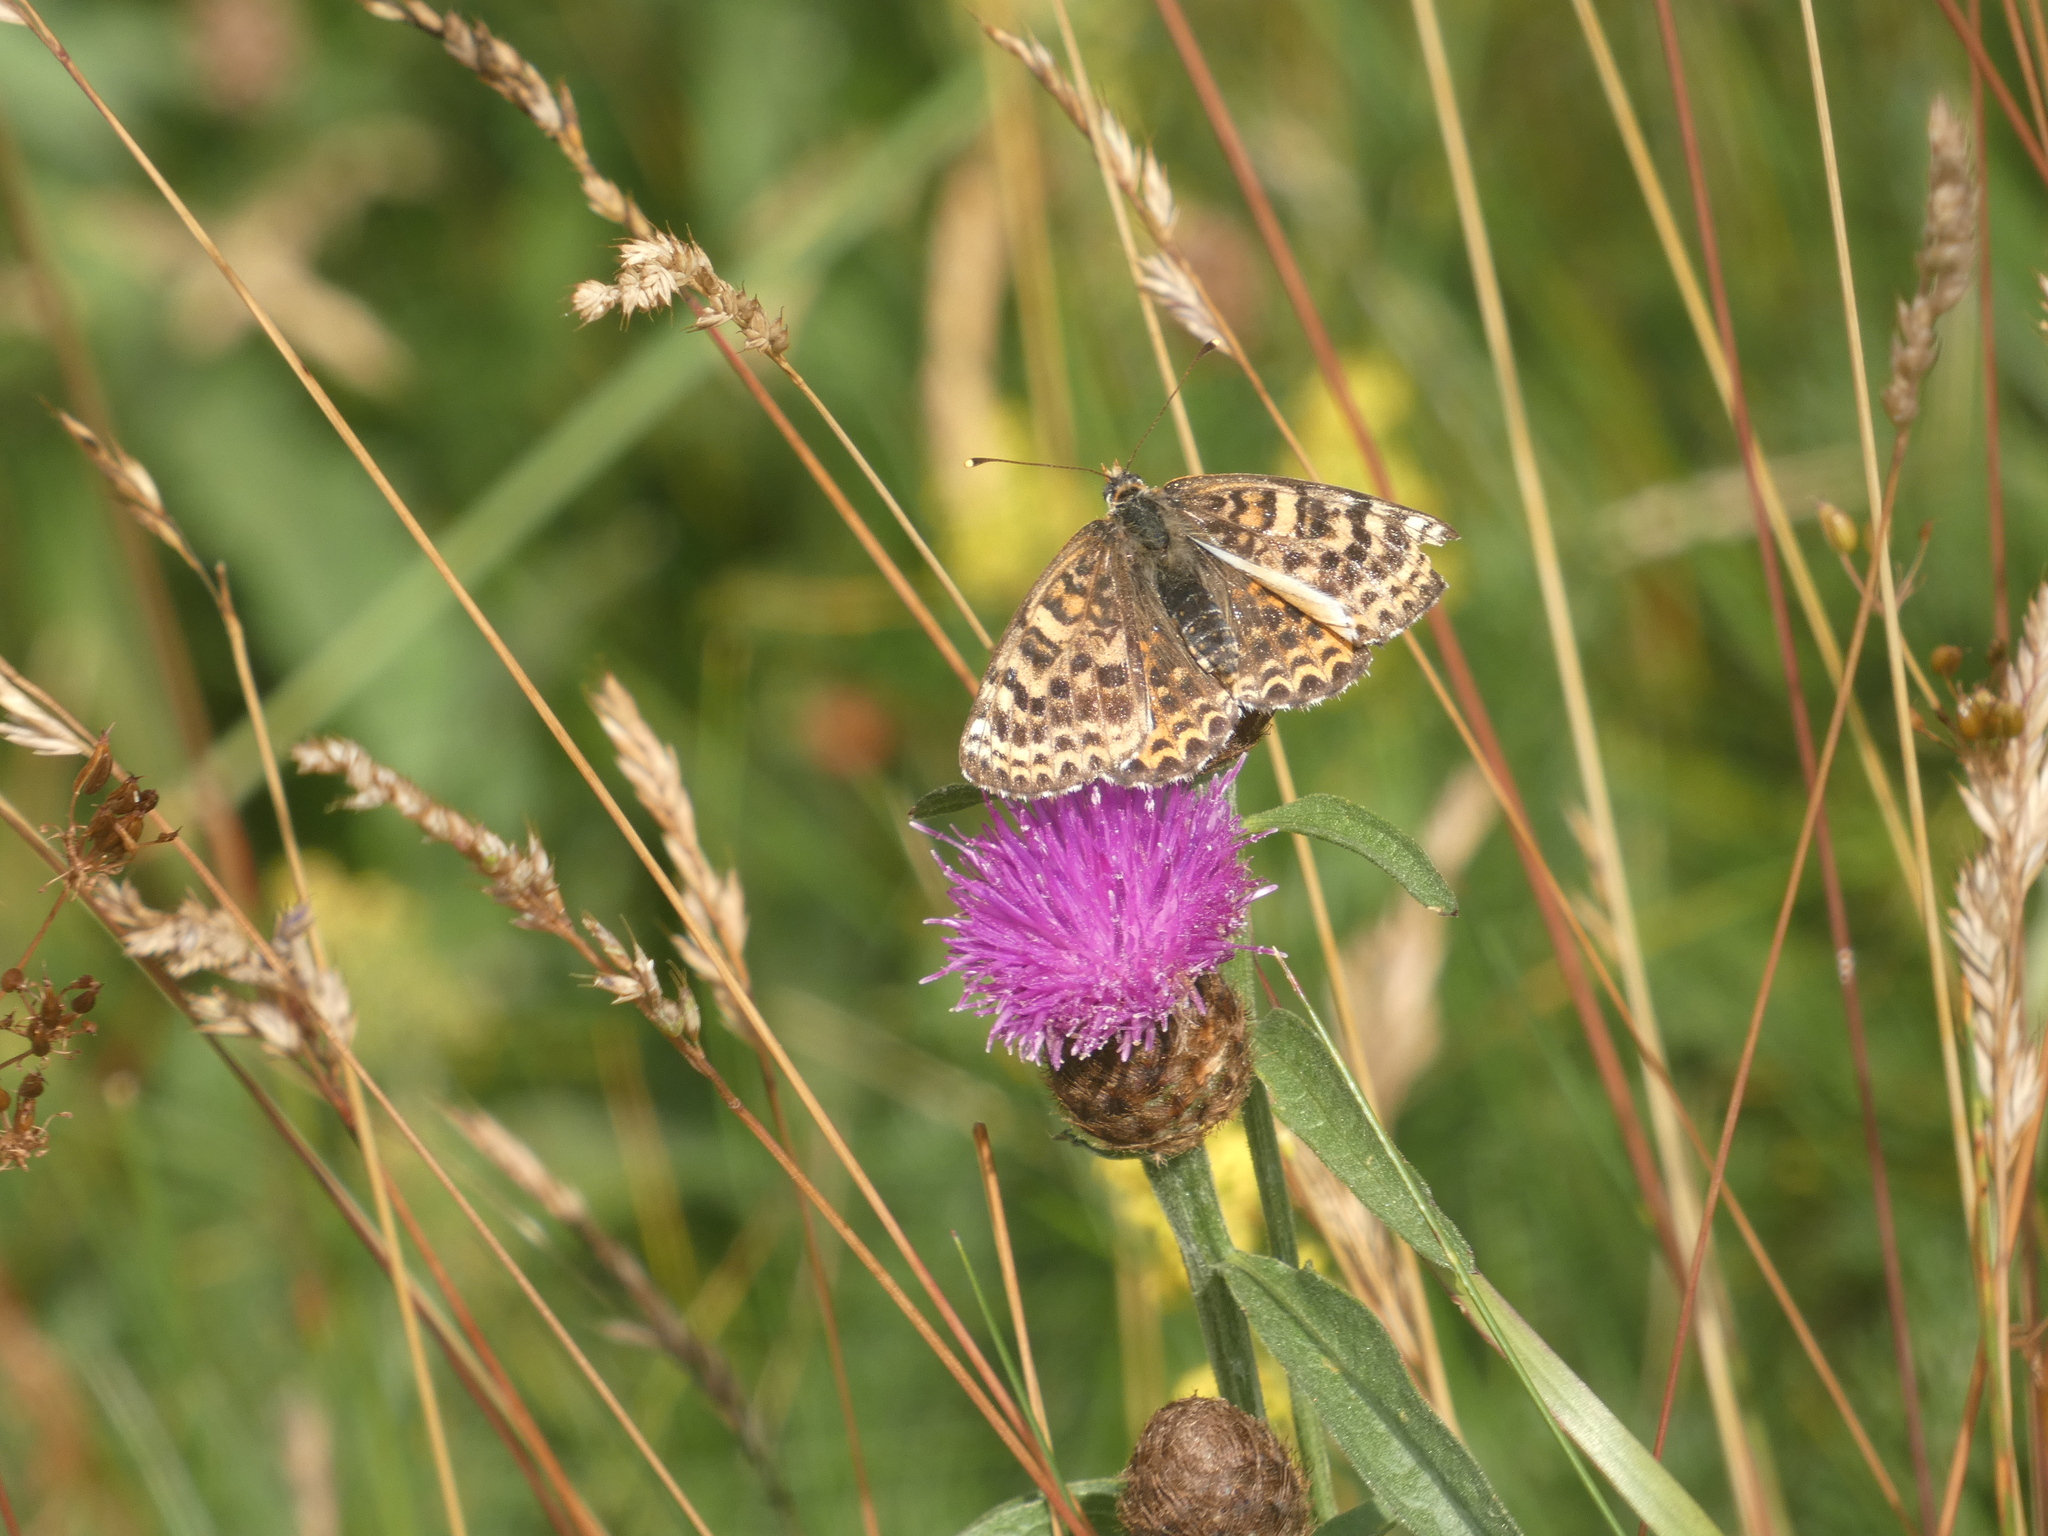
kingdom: Animalia
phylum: Arthropoda
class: Insecta
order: Lepidoptera
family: Nymphalidae
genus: Melitaea
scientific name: Melitaea didyma
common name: Spotted fritillary
